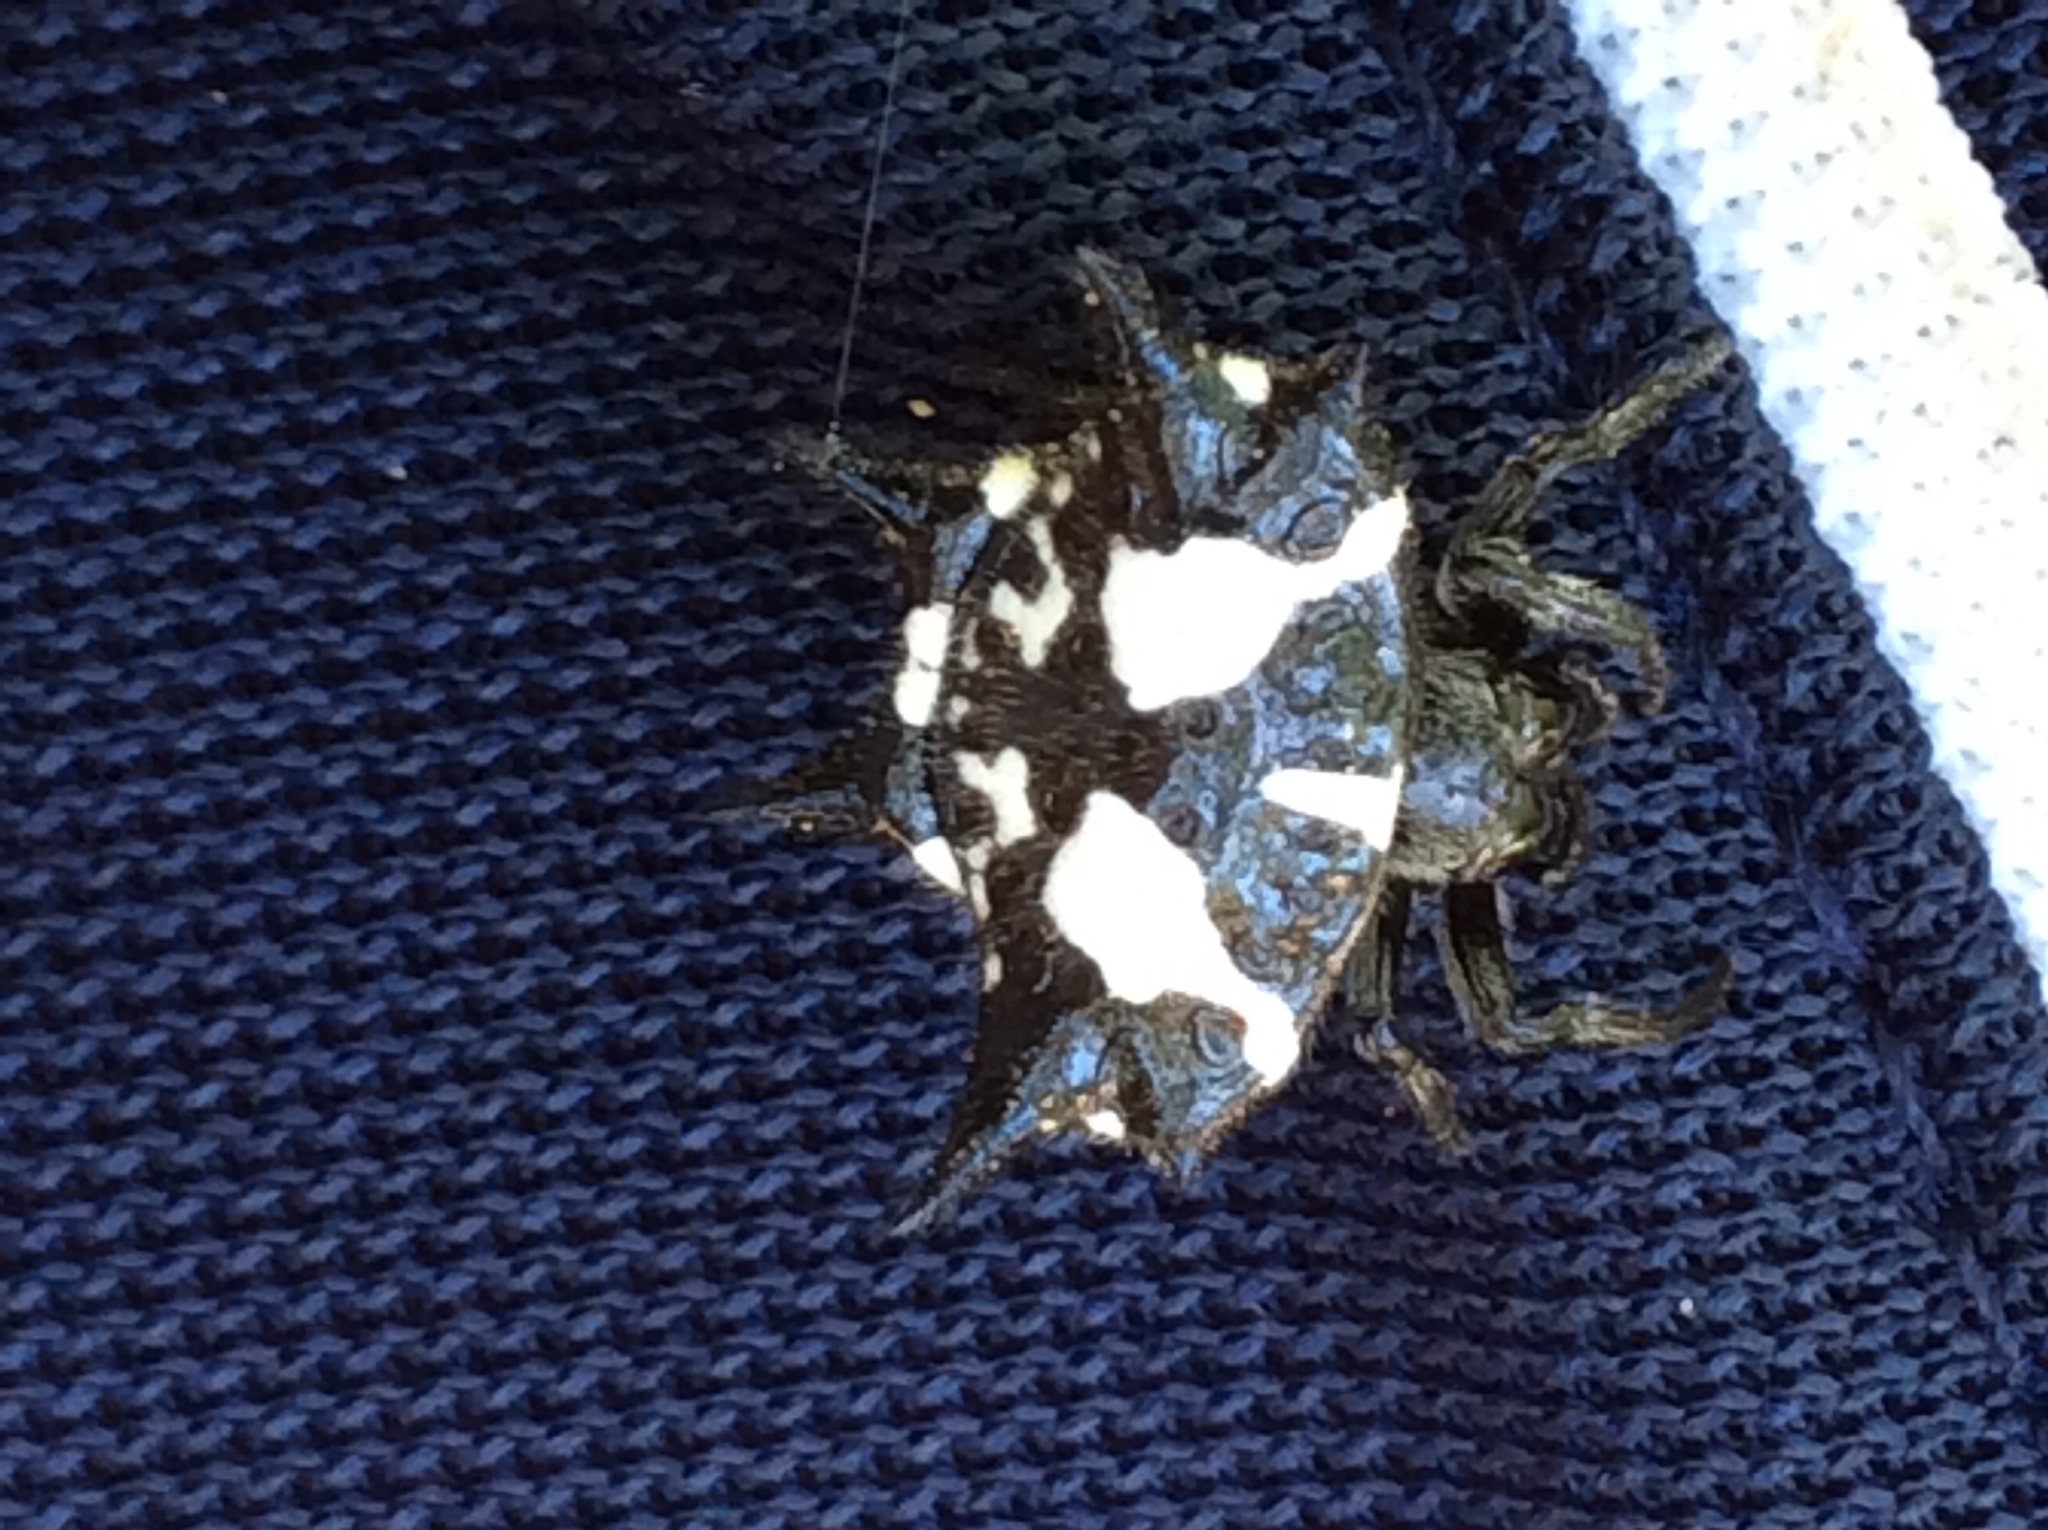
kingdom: Animalia
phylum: Arthropoda
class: Arachnida
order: Araneae
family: Araneidae
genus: Gasteracantha
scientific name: Gasteracantha kuhli
